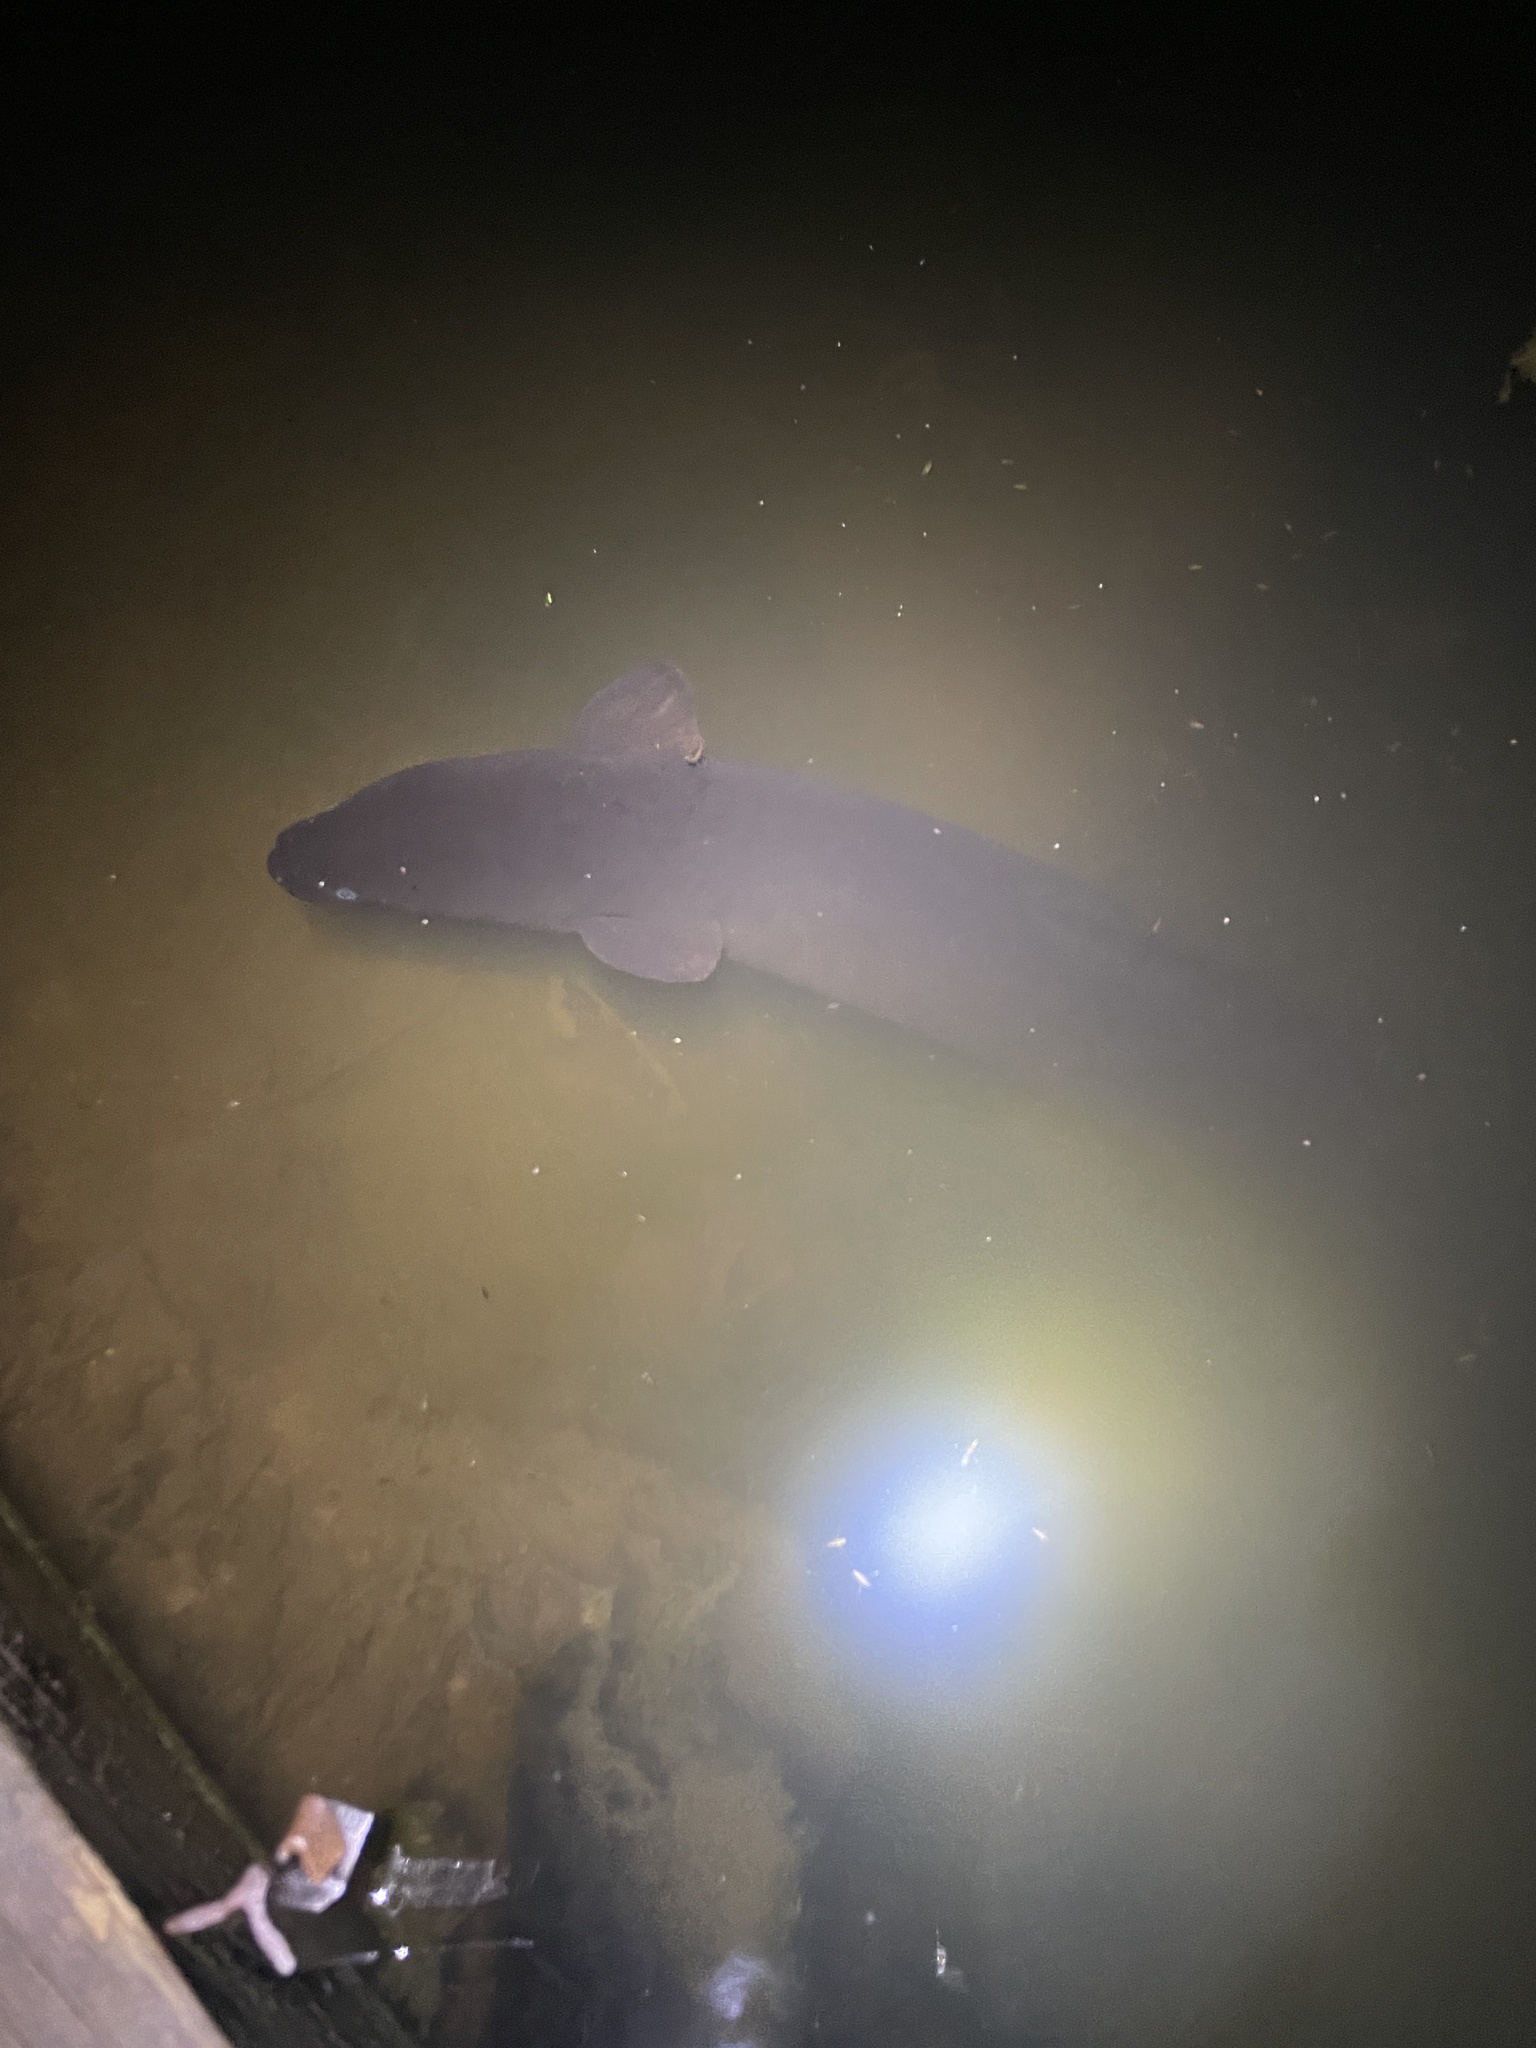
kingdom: Animalia
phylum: Chordata
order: Anguilliformes
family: Anguillidae
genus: Anguilla
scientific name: Anguilla dieffenbachii
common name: New zealand longfin eel
